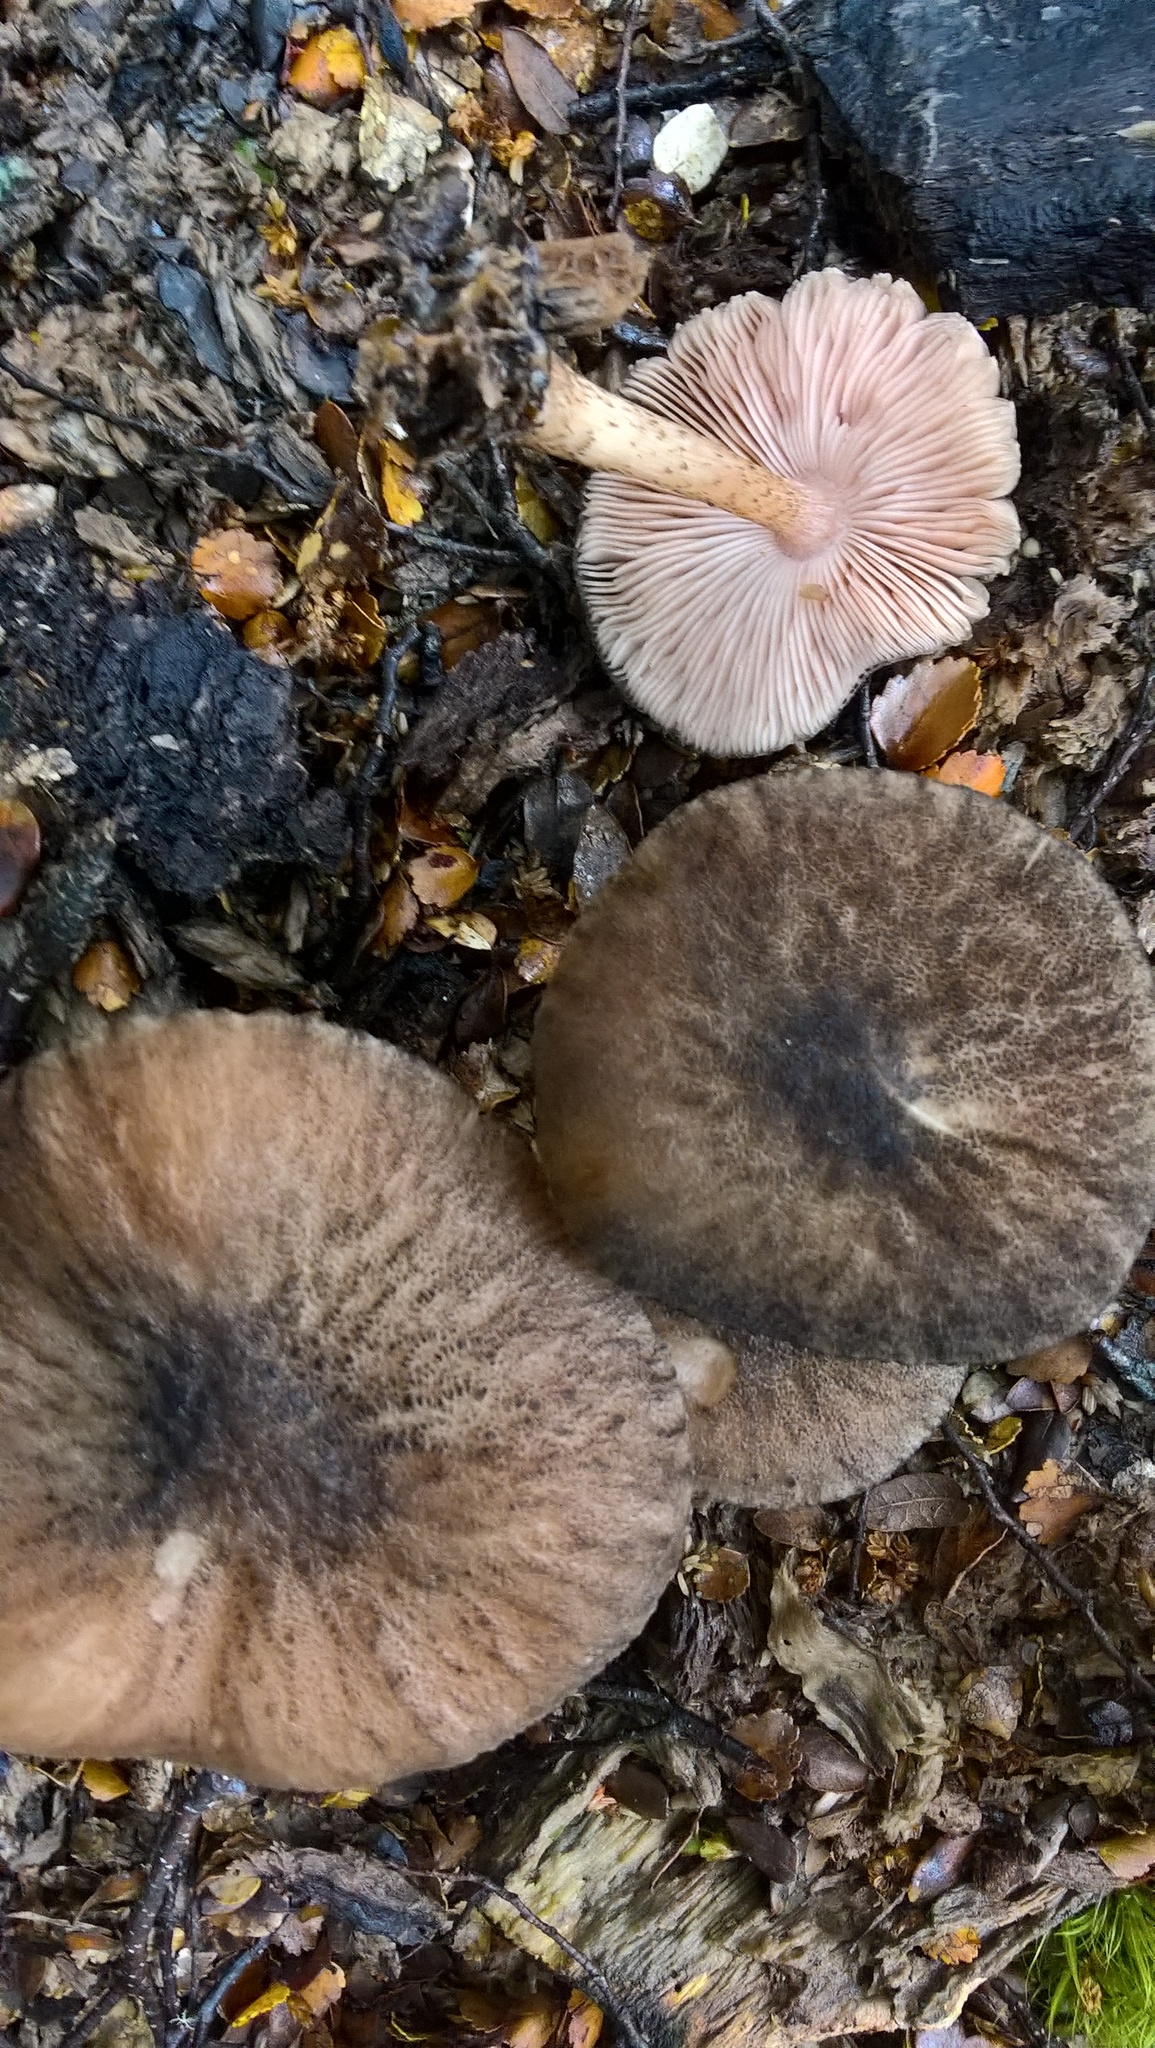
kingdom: Fungi
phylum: Basidiomycota
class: Agaricomycetes
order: Agaricales
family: Pluteaceae
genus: Pluteus
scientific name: Pluteus perroseus
